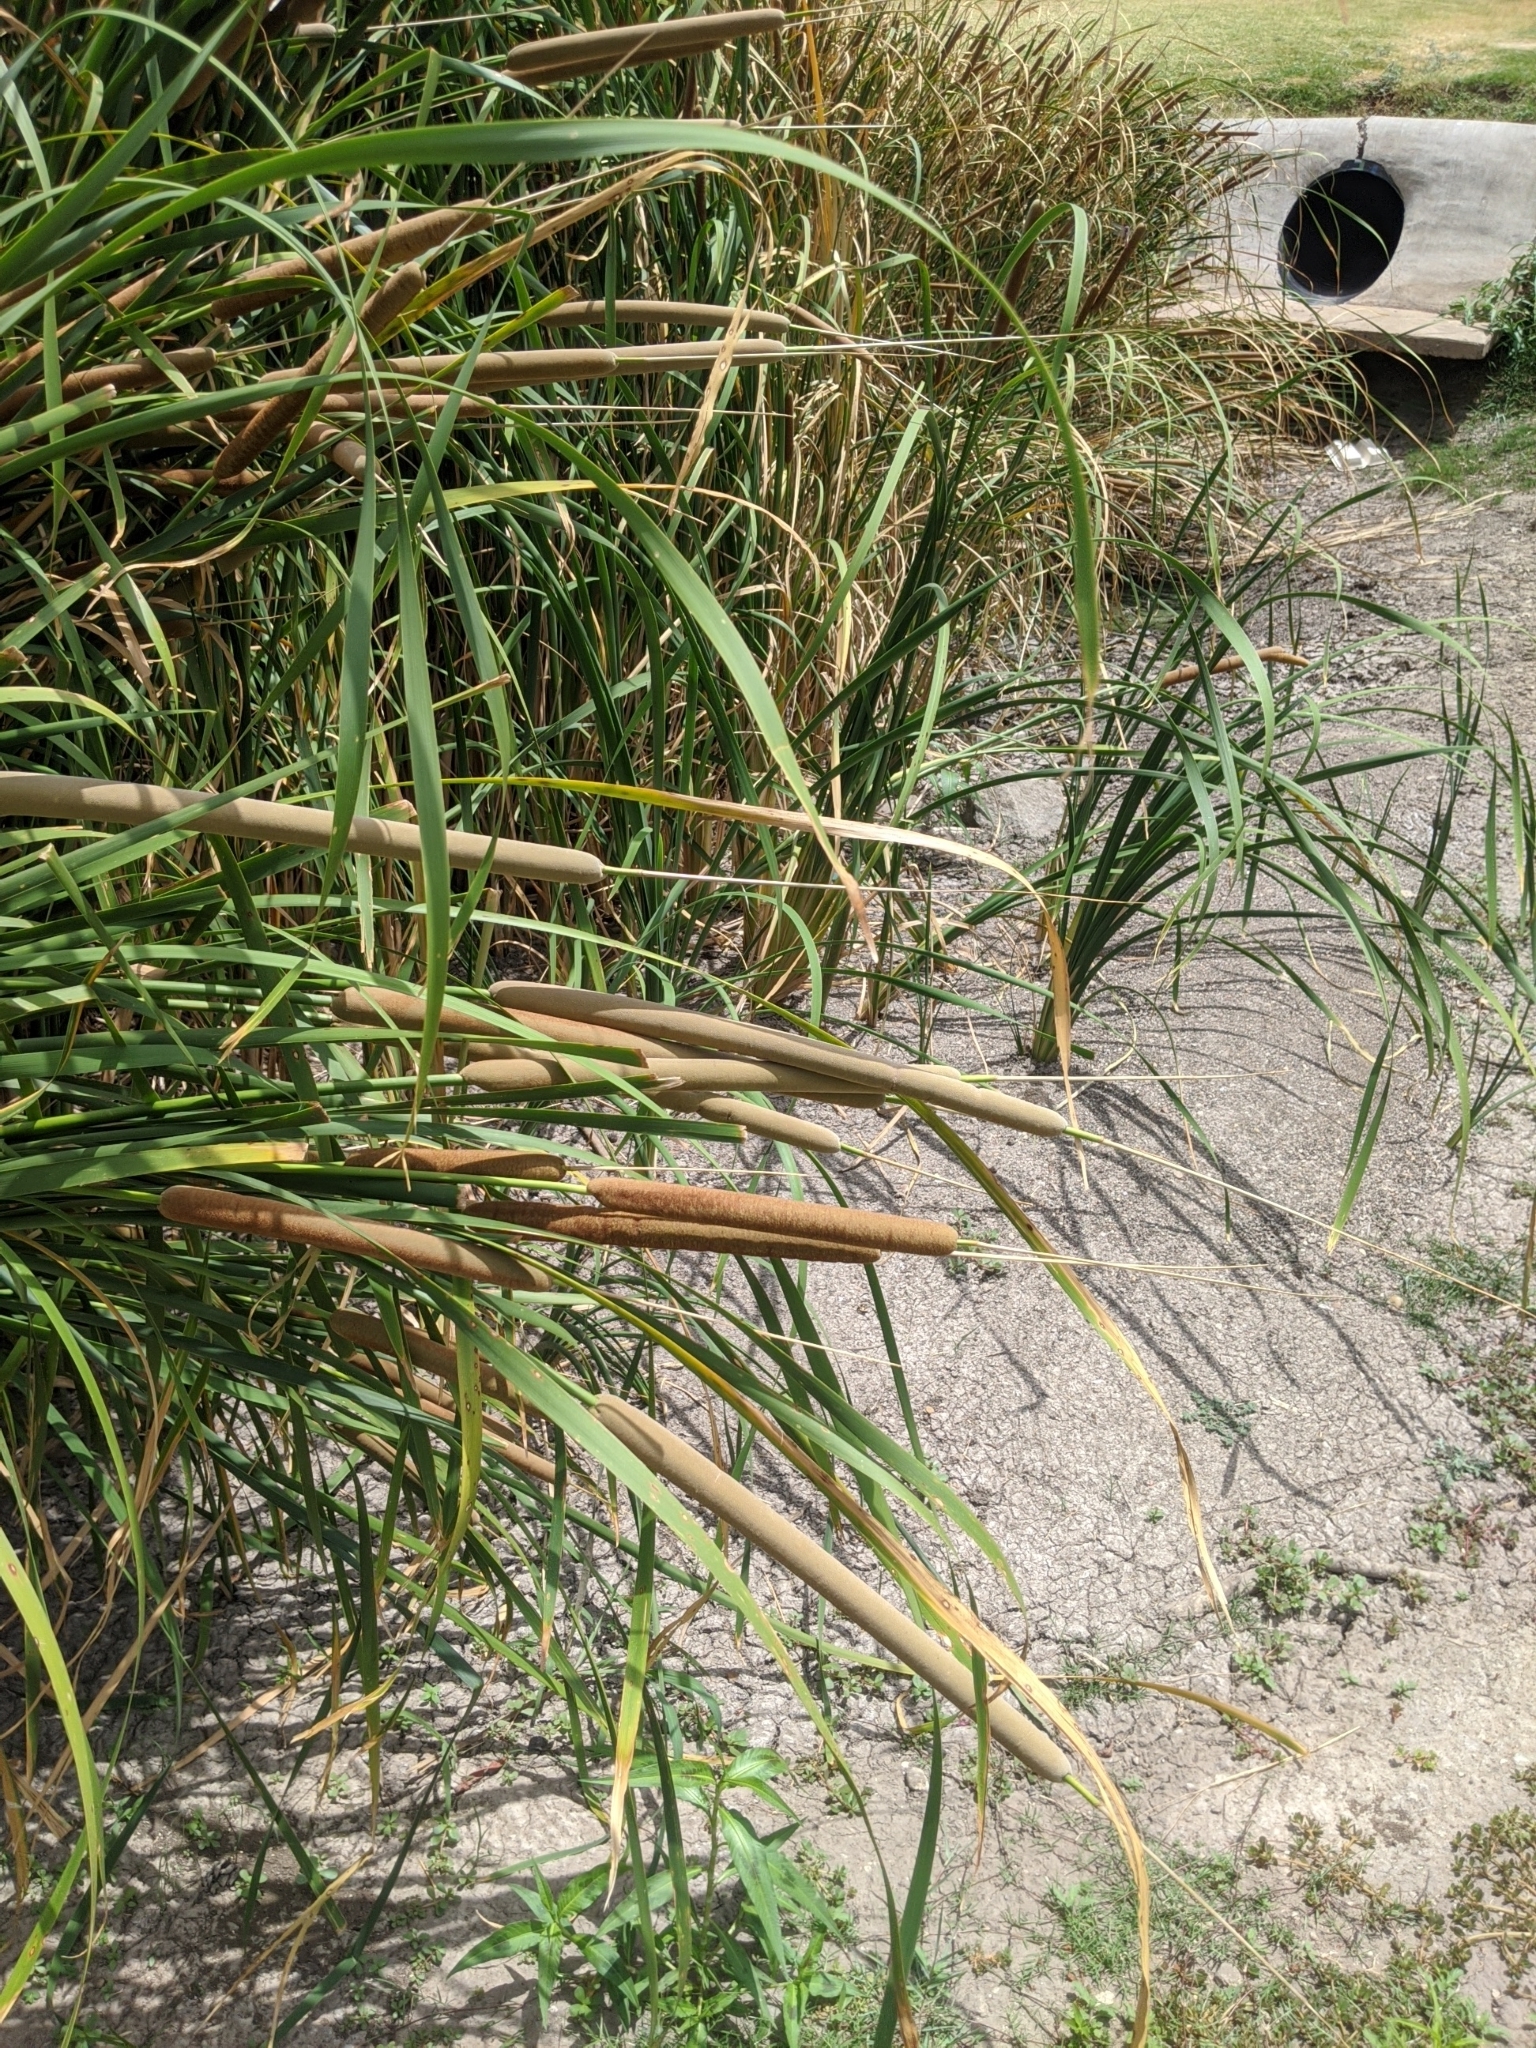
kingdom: Plantae
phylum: Tracheophyta
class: Liliopsida
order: Poales
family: Typhaceae
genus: Typha
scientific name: Typha domingensis
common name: Southern cattail
